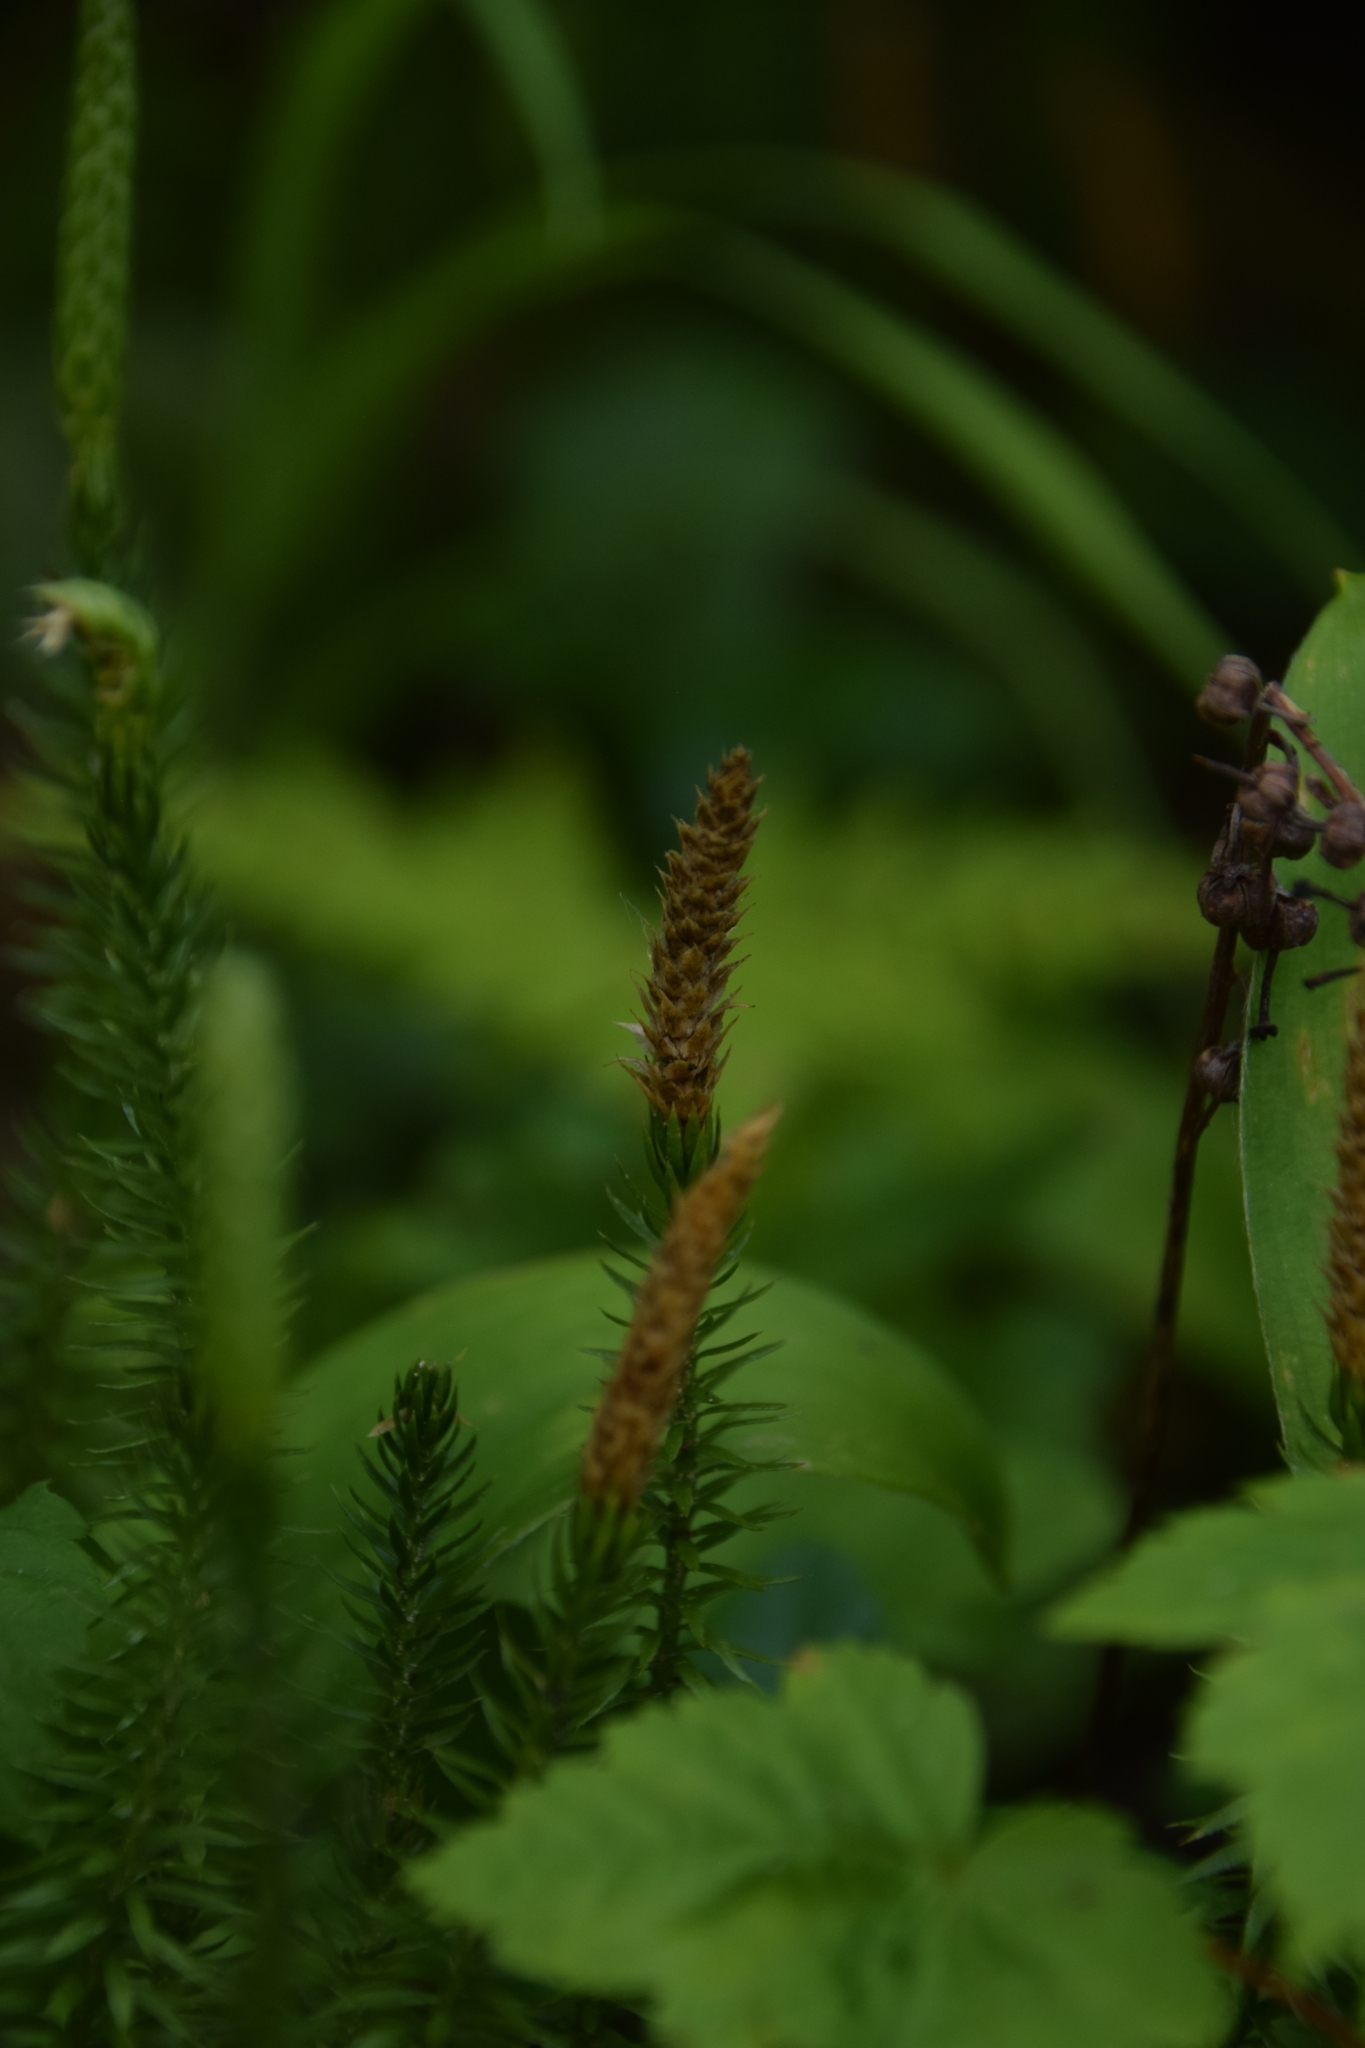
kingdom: Plantae
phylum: Tracheophyta
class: Lycopodiopsida
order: Lycopodiales
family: Lycopodiaceae
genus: Spinulum
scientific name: Spinulum annotinum
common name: Interrupted club-moss
